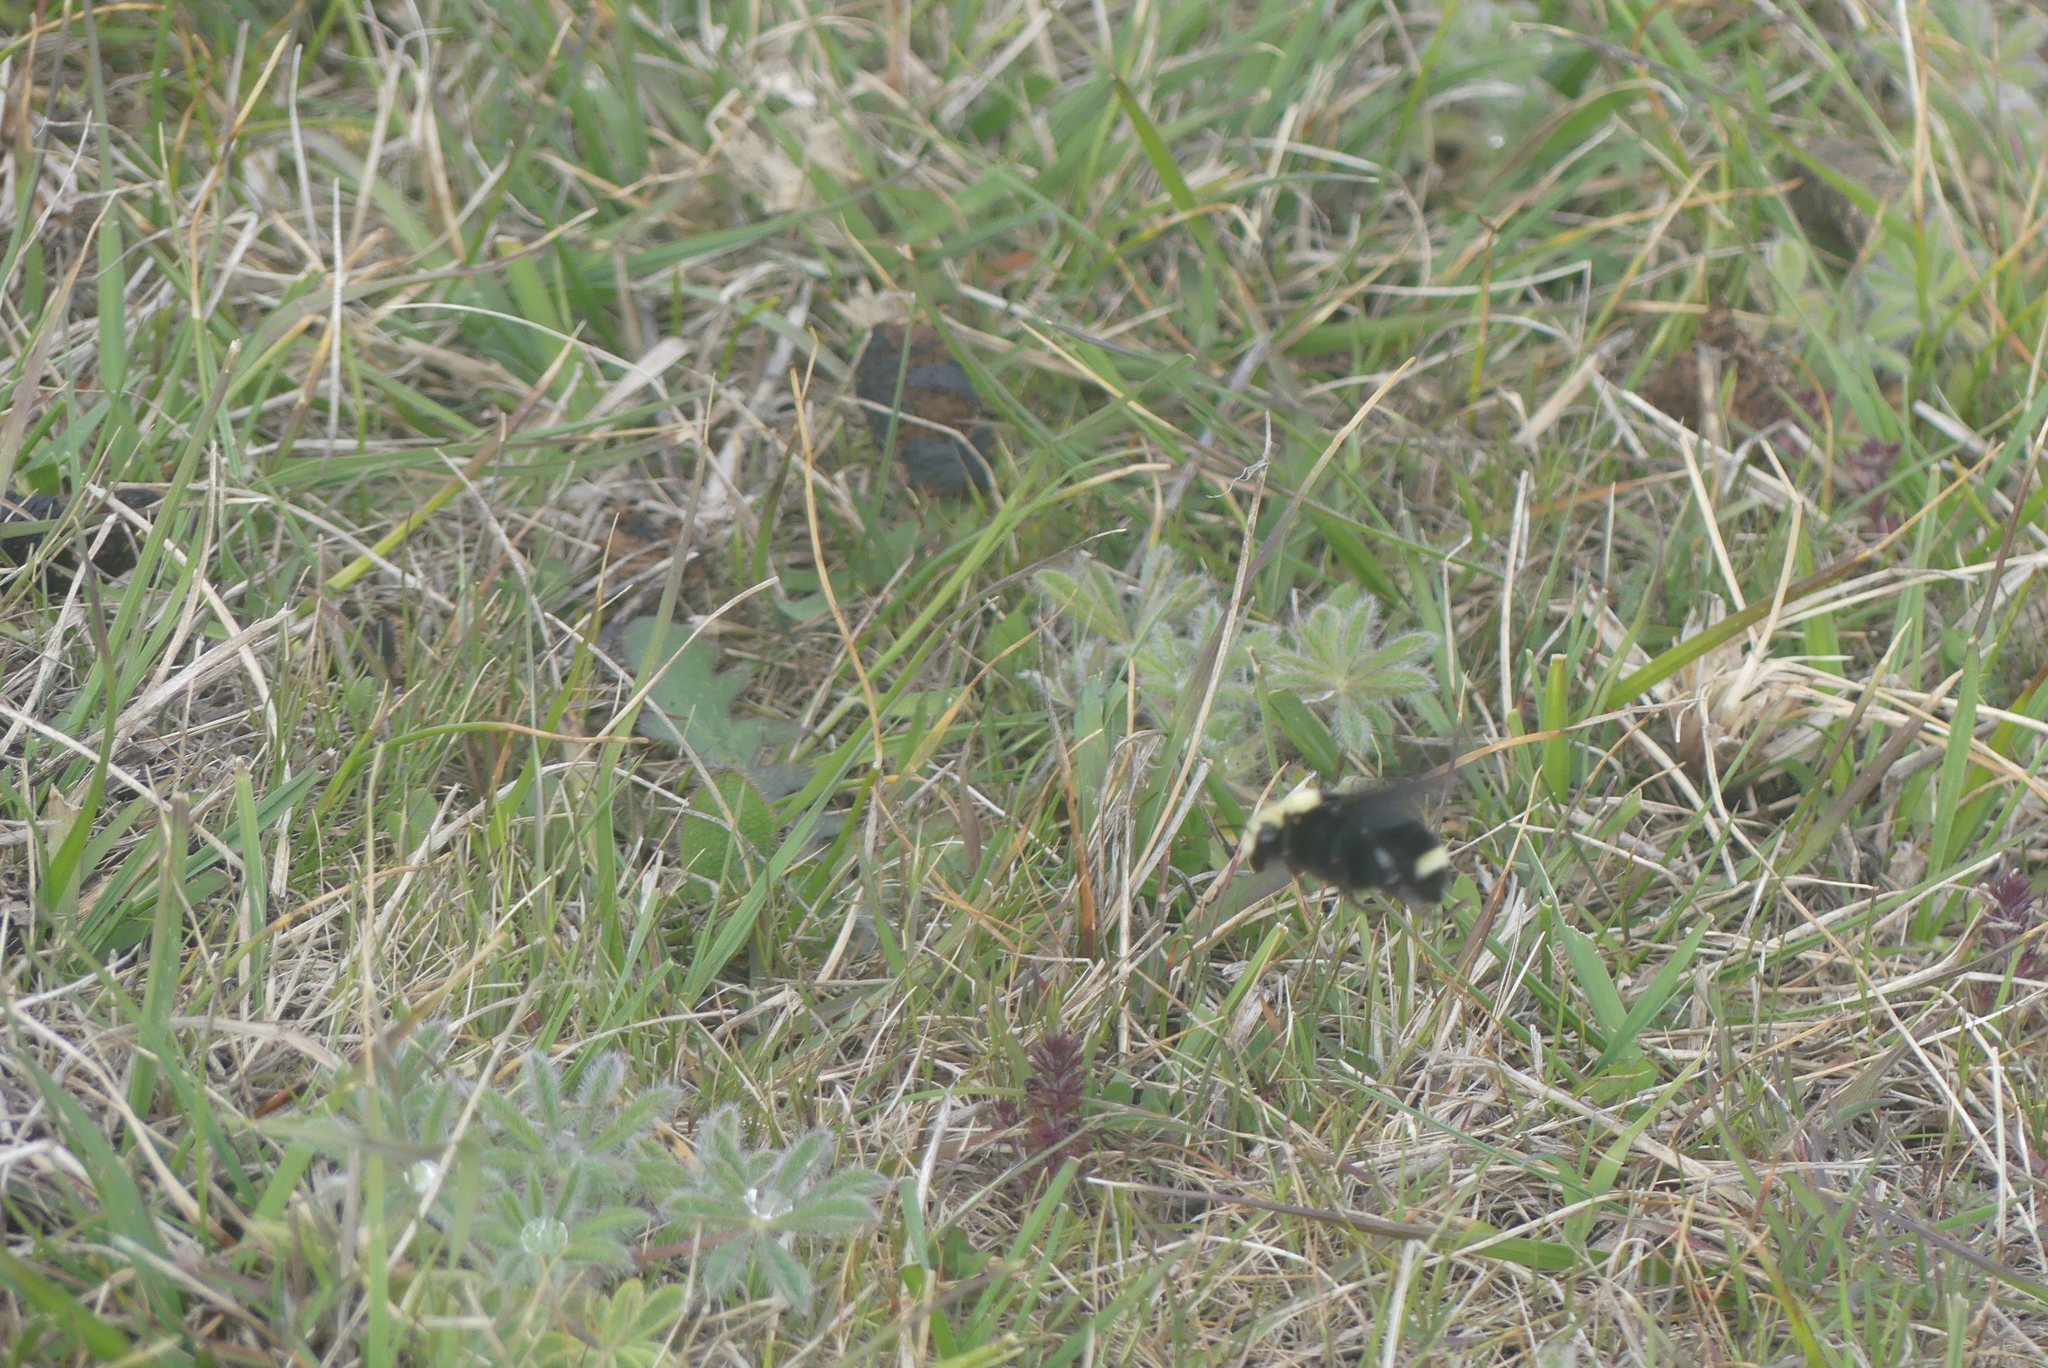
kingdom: Animalia
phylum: Arthropoda
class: Insecta
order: Hymenoptera
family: Apidae
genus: Bombus
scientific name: Bombus vosnesenskii
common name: Vosnesensky bumble bee
